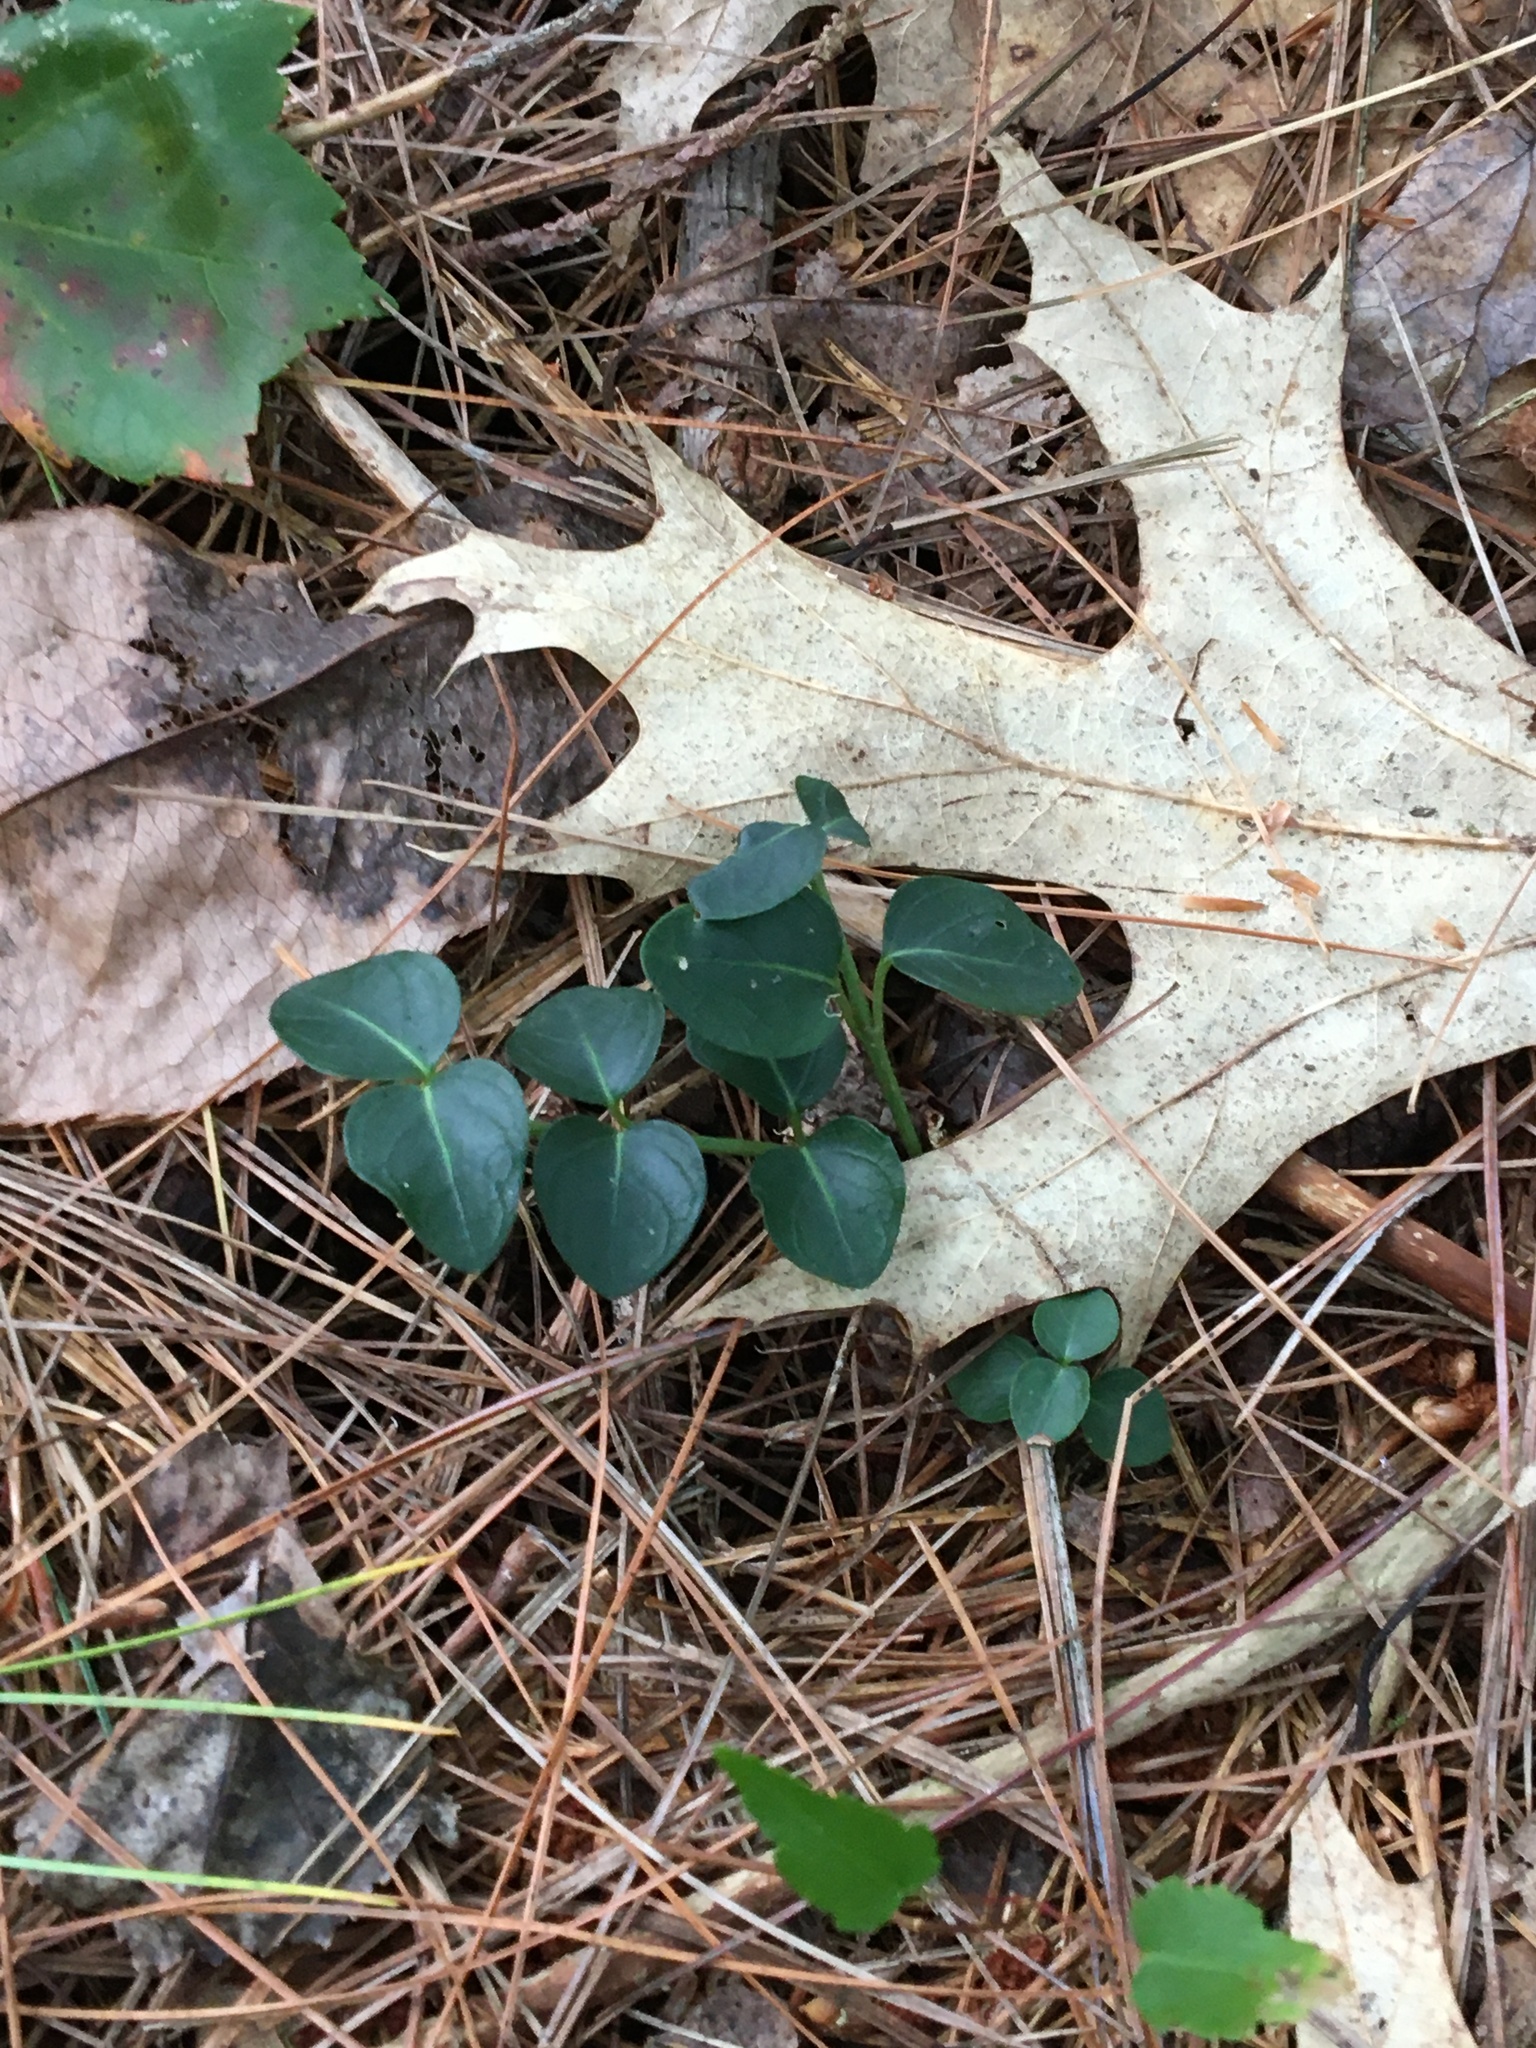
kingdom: Plantae
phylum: Tracheophyta
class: Magnoliopsida
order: Gentianales
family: Rubiaceae
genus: Mitchella
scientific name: Mitchella repens
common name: Partridge-berry
